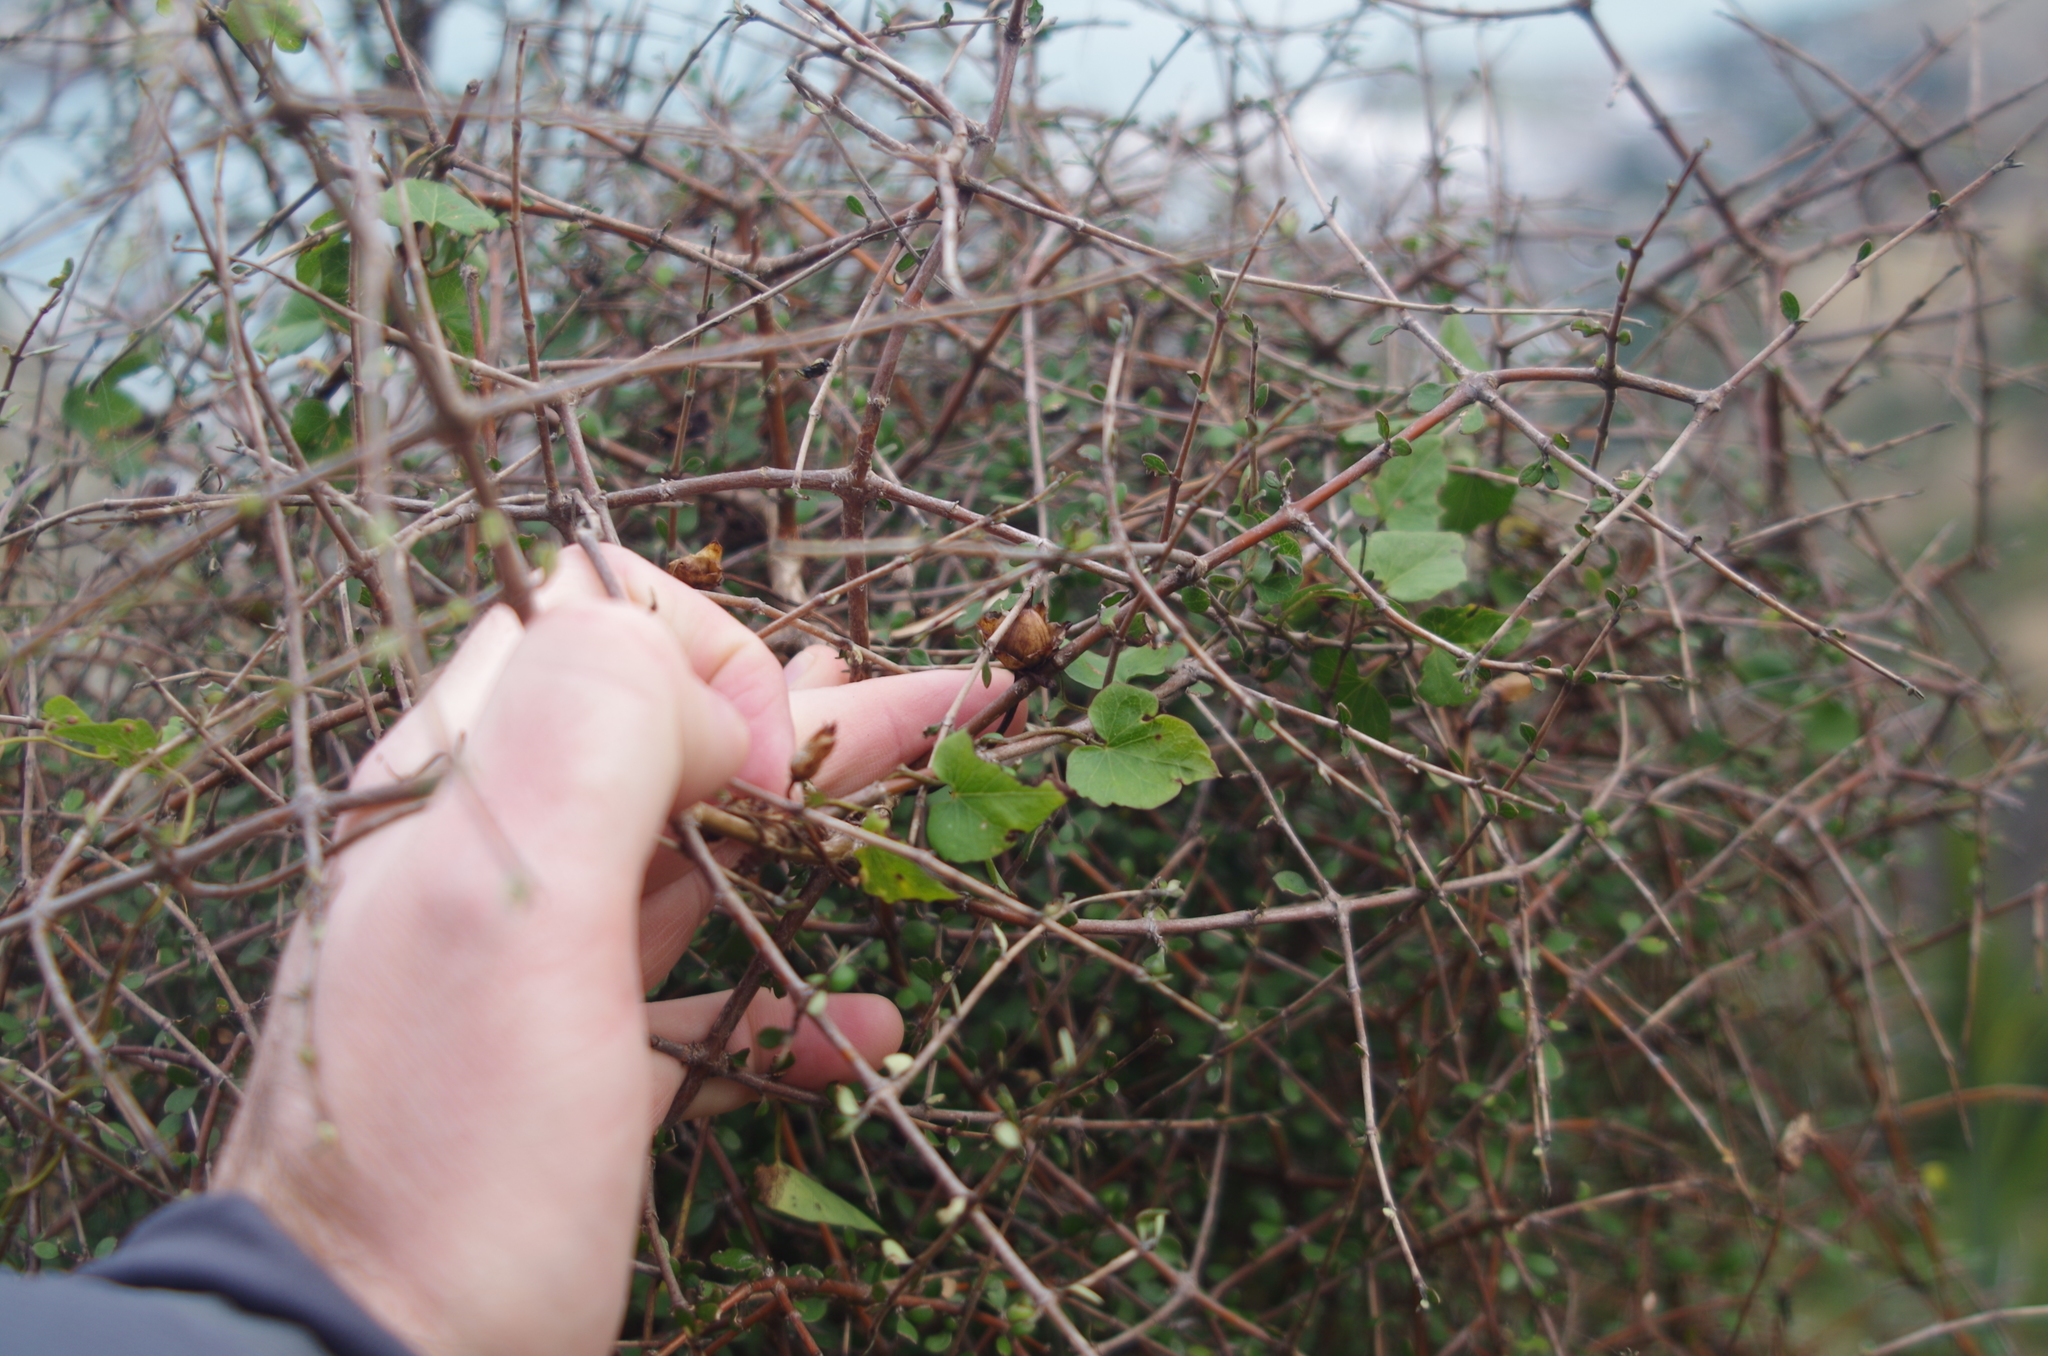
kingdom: Plantae
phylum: Tracheophyta
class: Magnoliopsida
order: Solanales
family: Convolvulaceae
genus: Calystegia
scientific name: Calystegia tuguriorum
